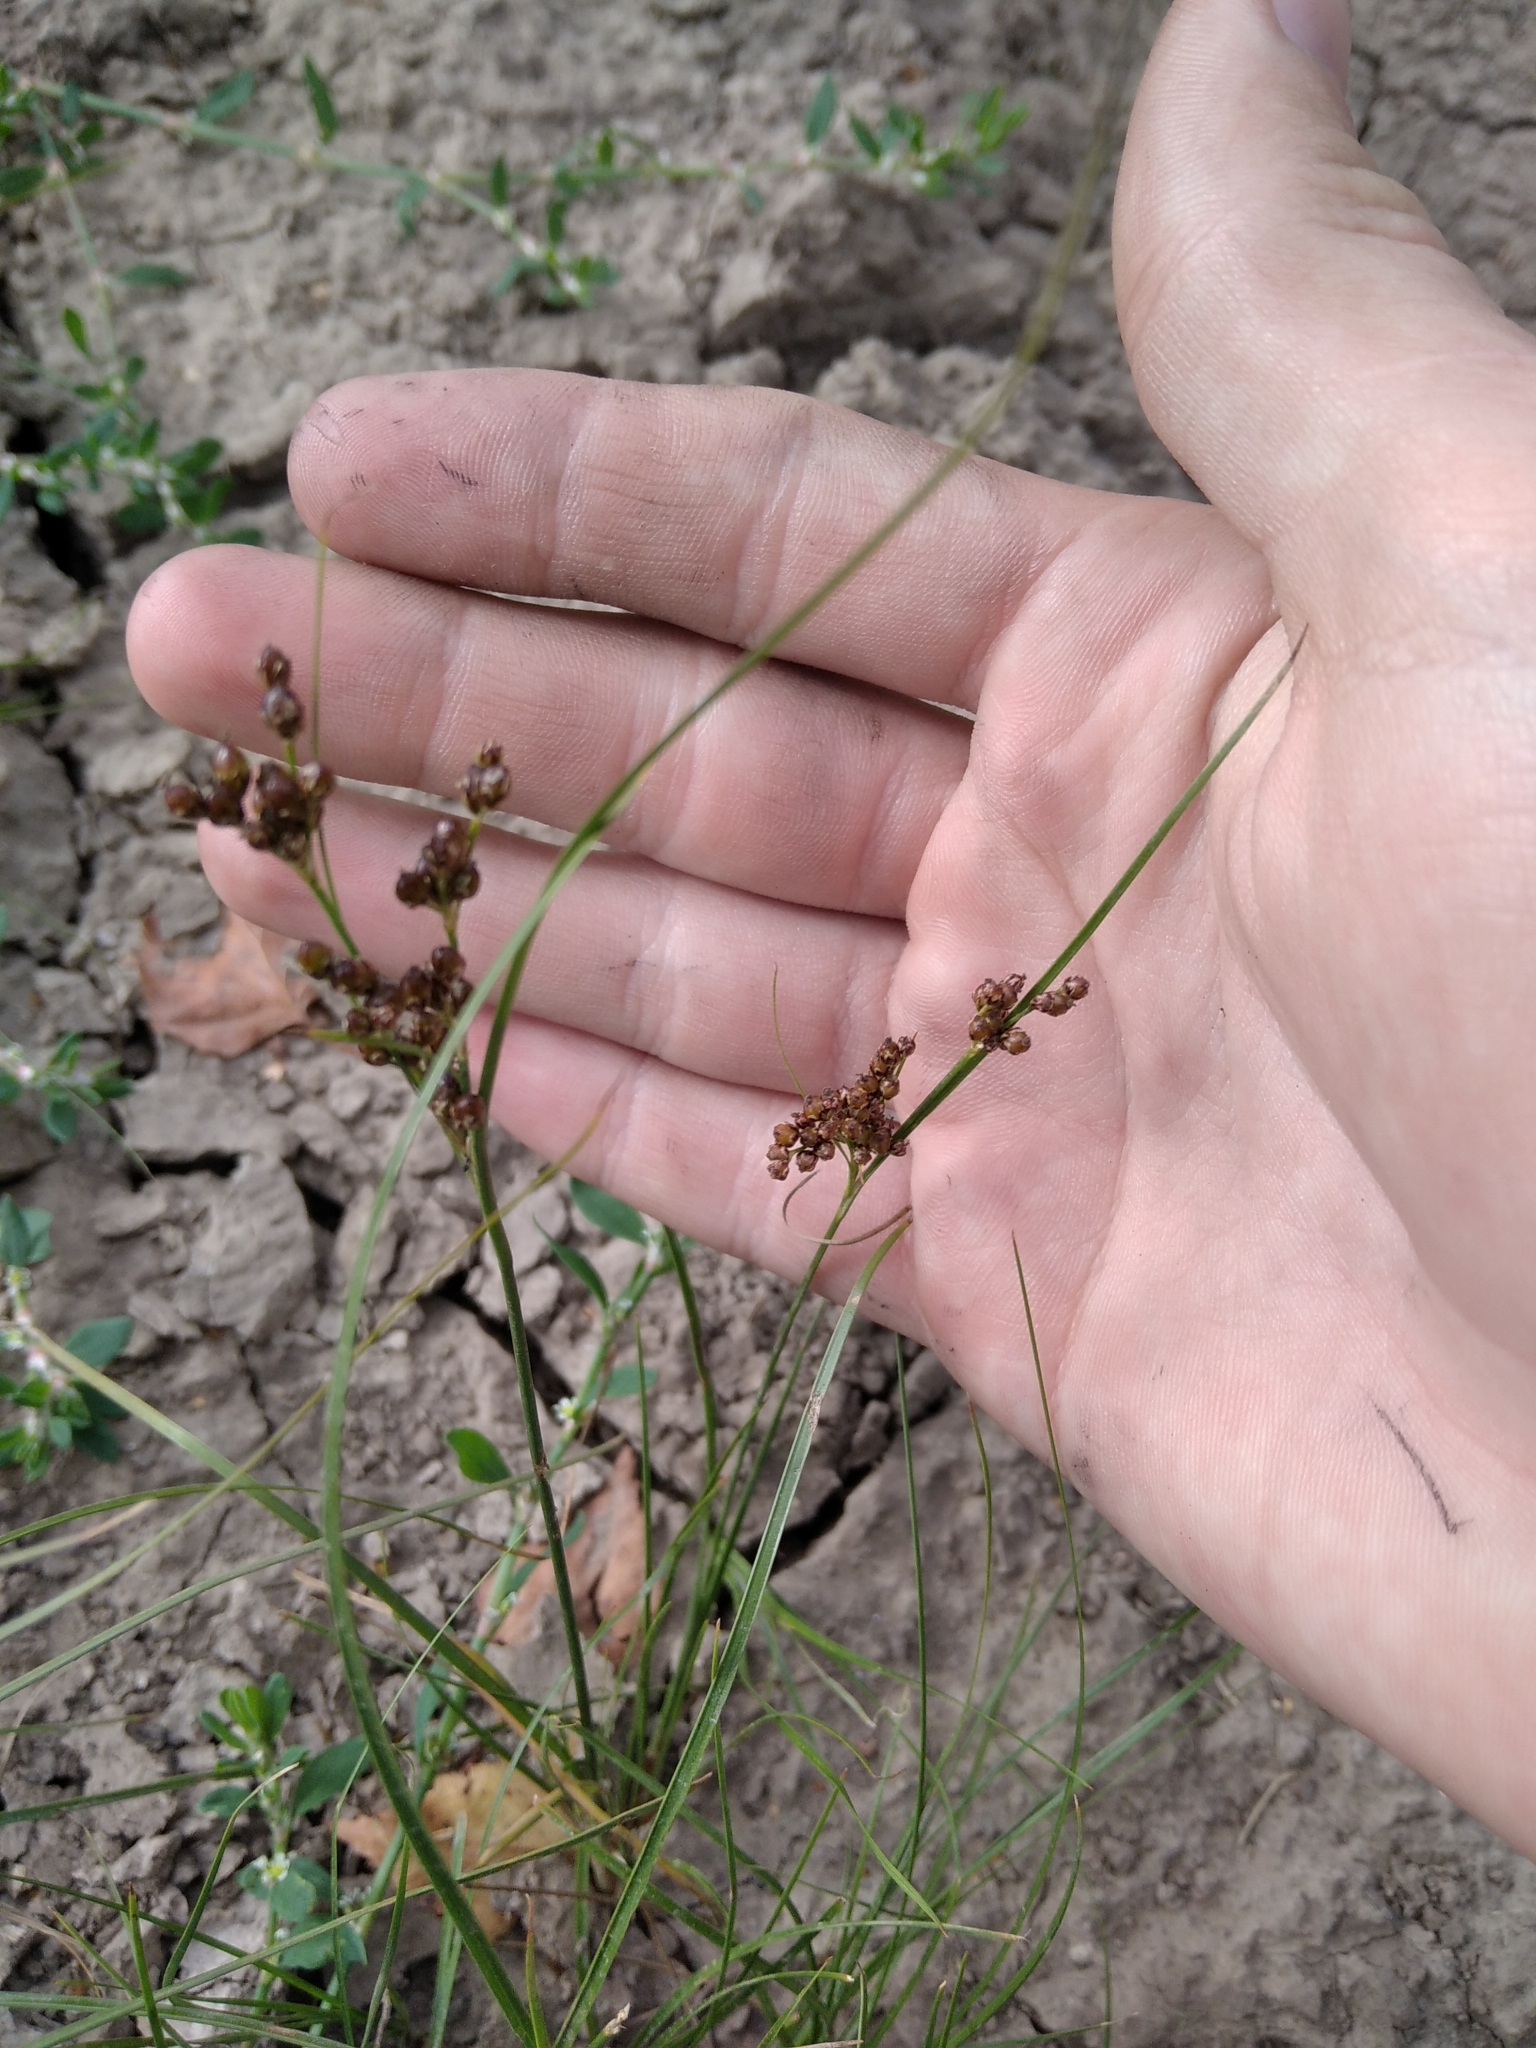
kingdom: Plantae
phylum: Tracheophyta
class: Liliopsida
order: Poales
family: Juncaceae
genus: Juncus
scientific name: Juncus compressus
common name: Round-fruited rush
